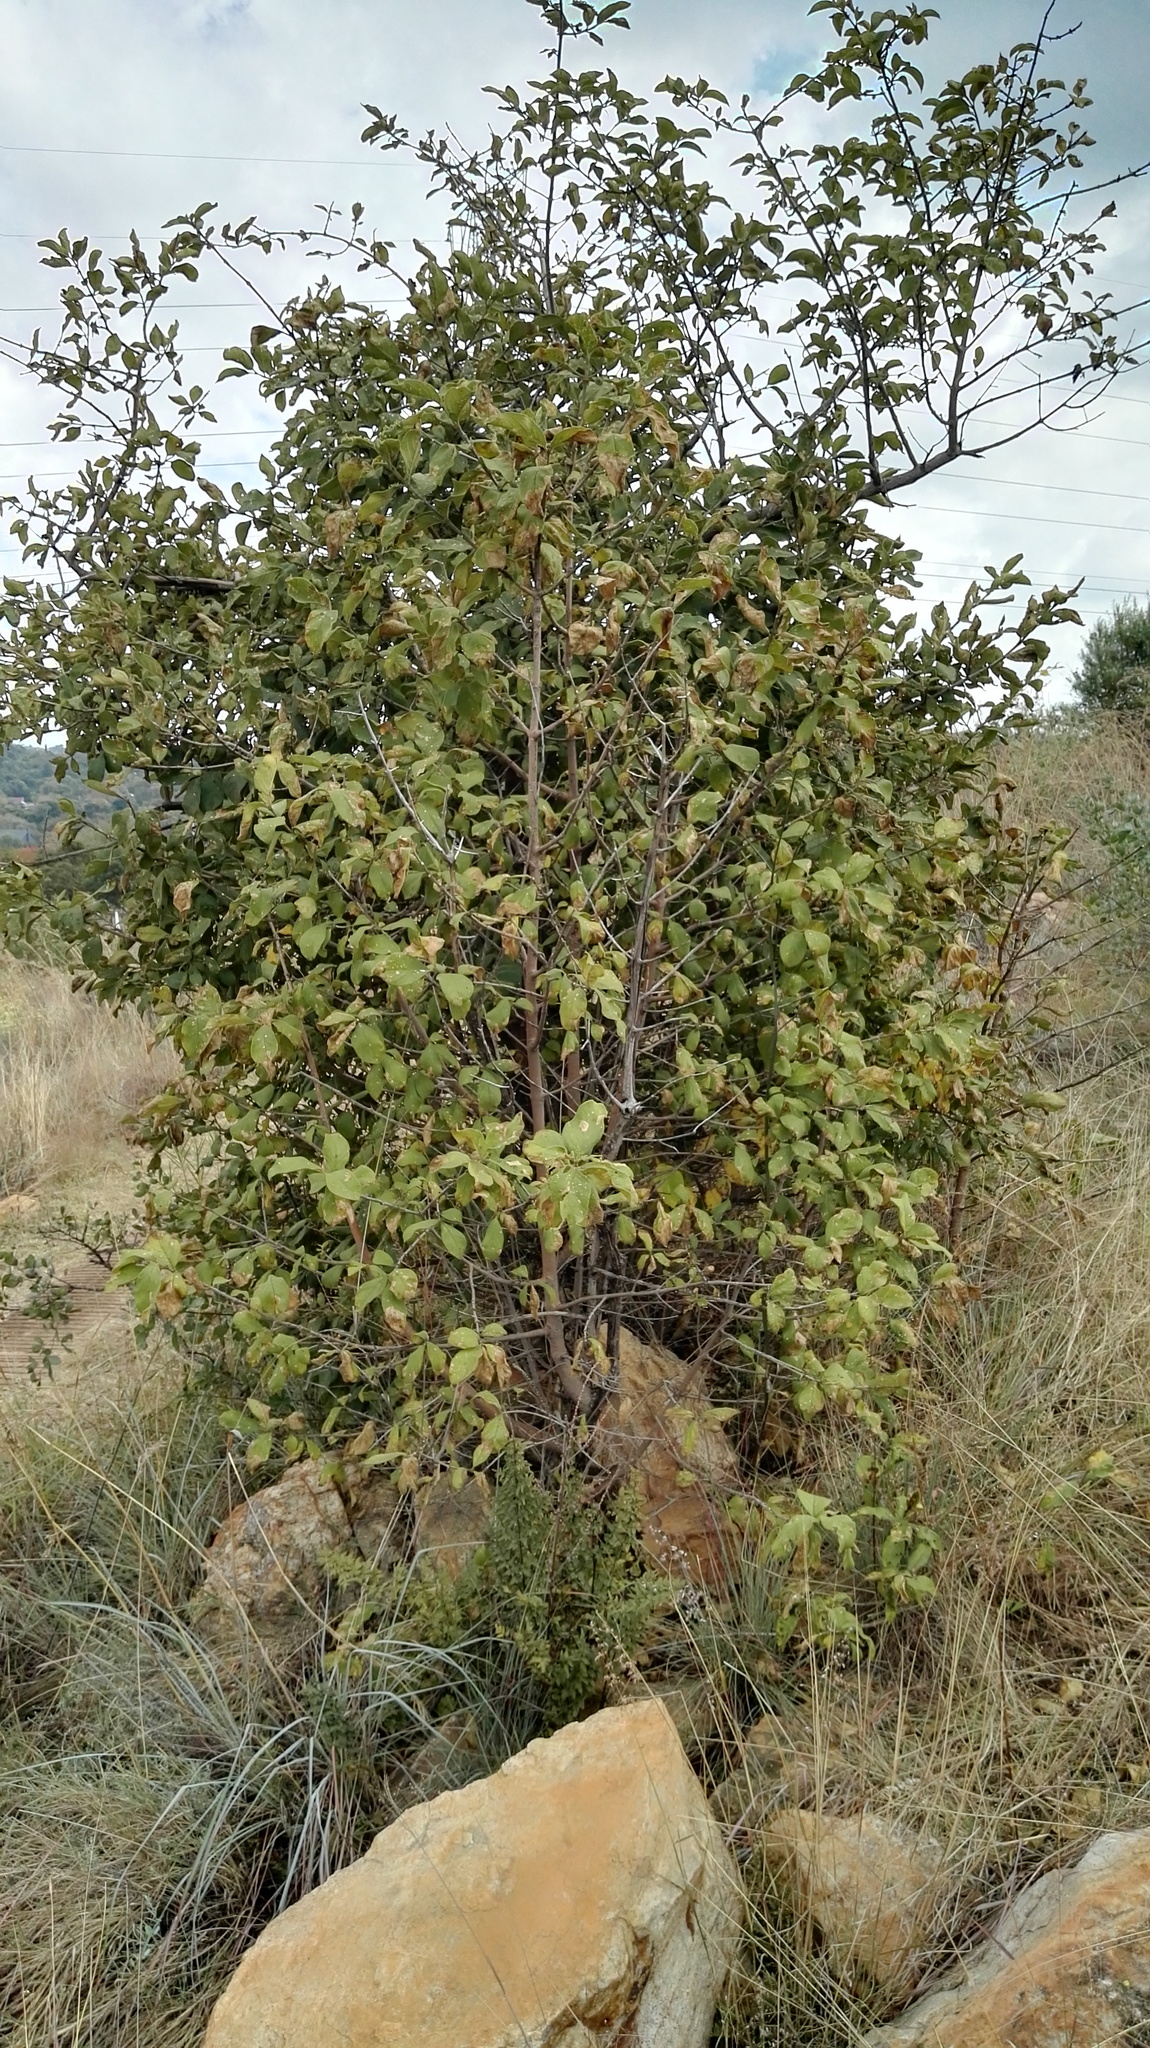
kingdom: Plantae
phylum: Tracheophyta
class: Magnoliopsida
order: Gentianales
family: Rubiaceae
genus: Vangueria
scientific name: Vangueria infausta
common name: Medlar
